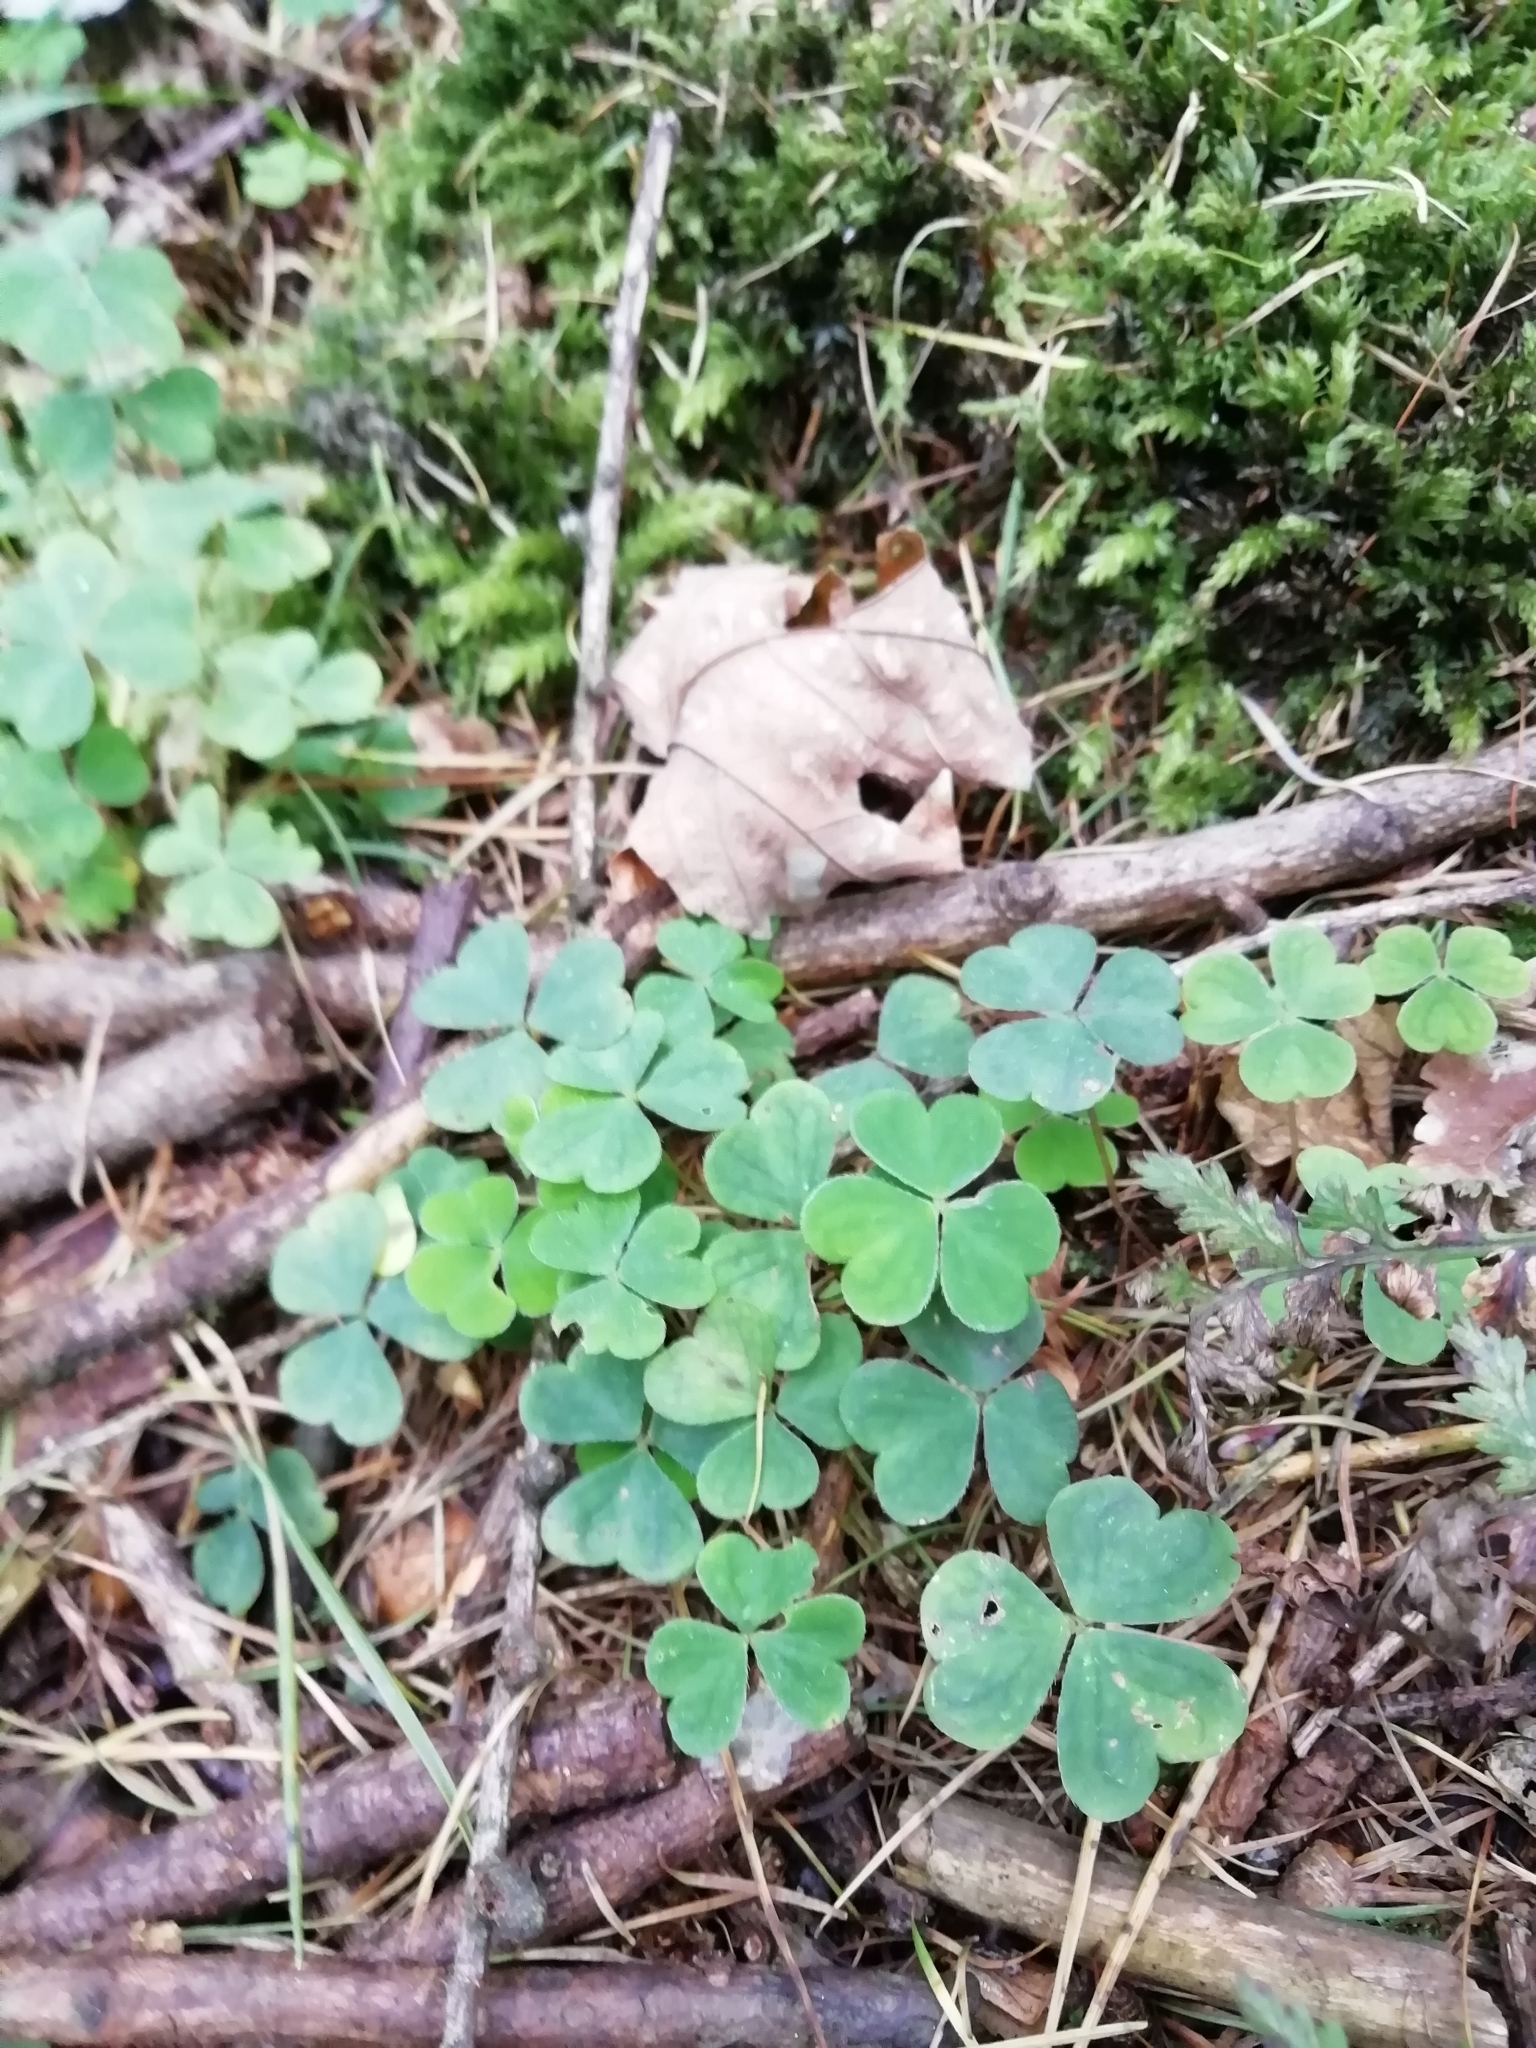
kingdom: Plantae
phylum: Tracheophyta
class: Magnoliopsida
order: Oxalidales
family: Oxalidaceae
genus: Oxalis
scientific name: Oxalis acetosella
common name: Wood-sorrel
